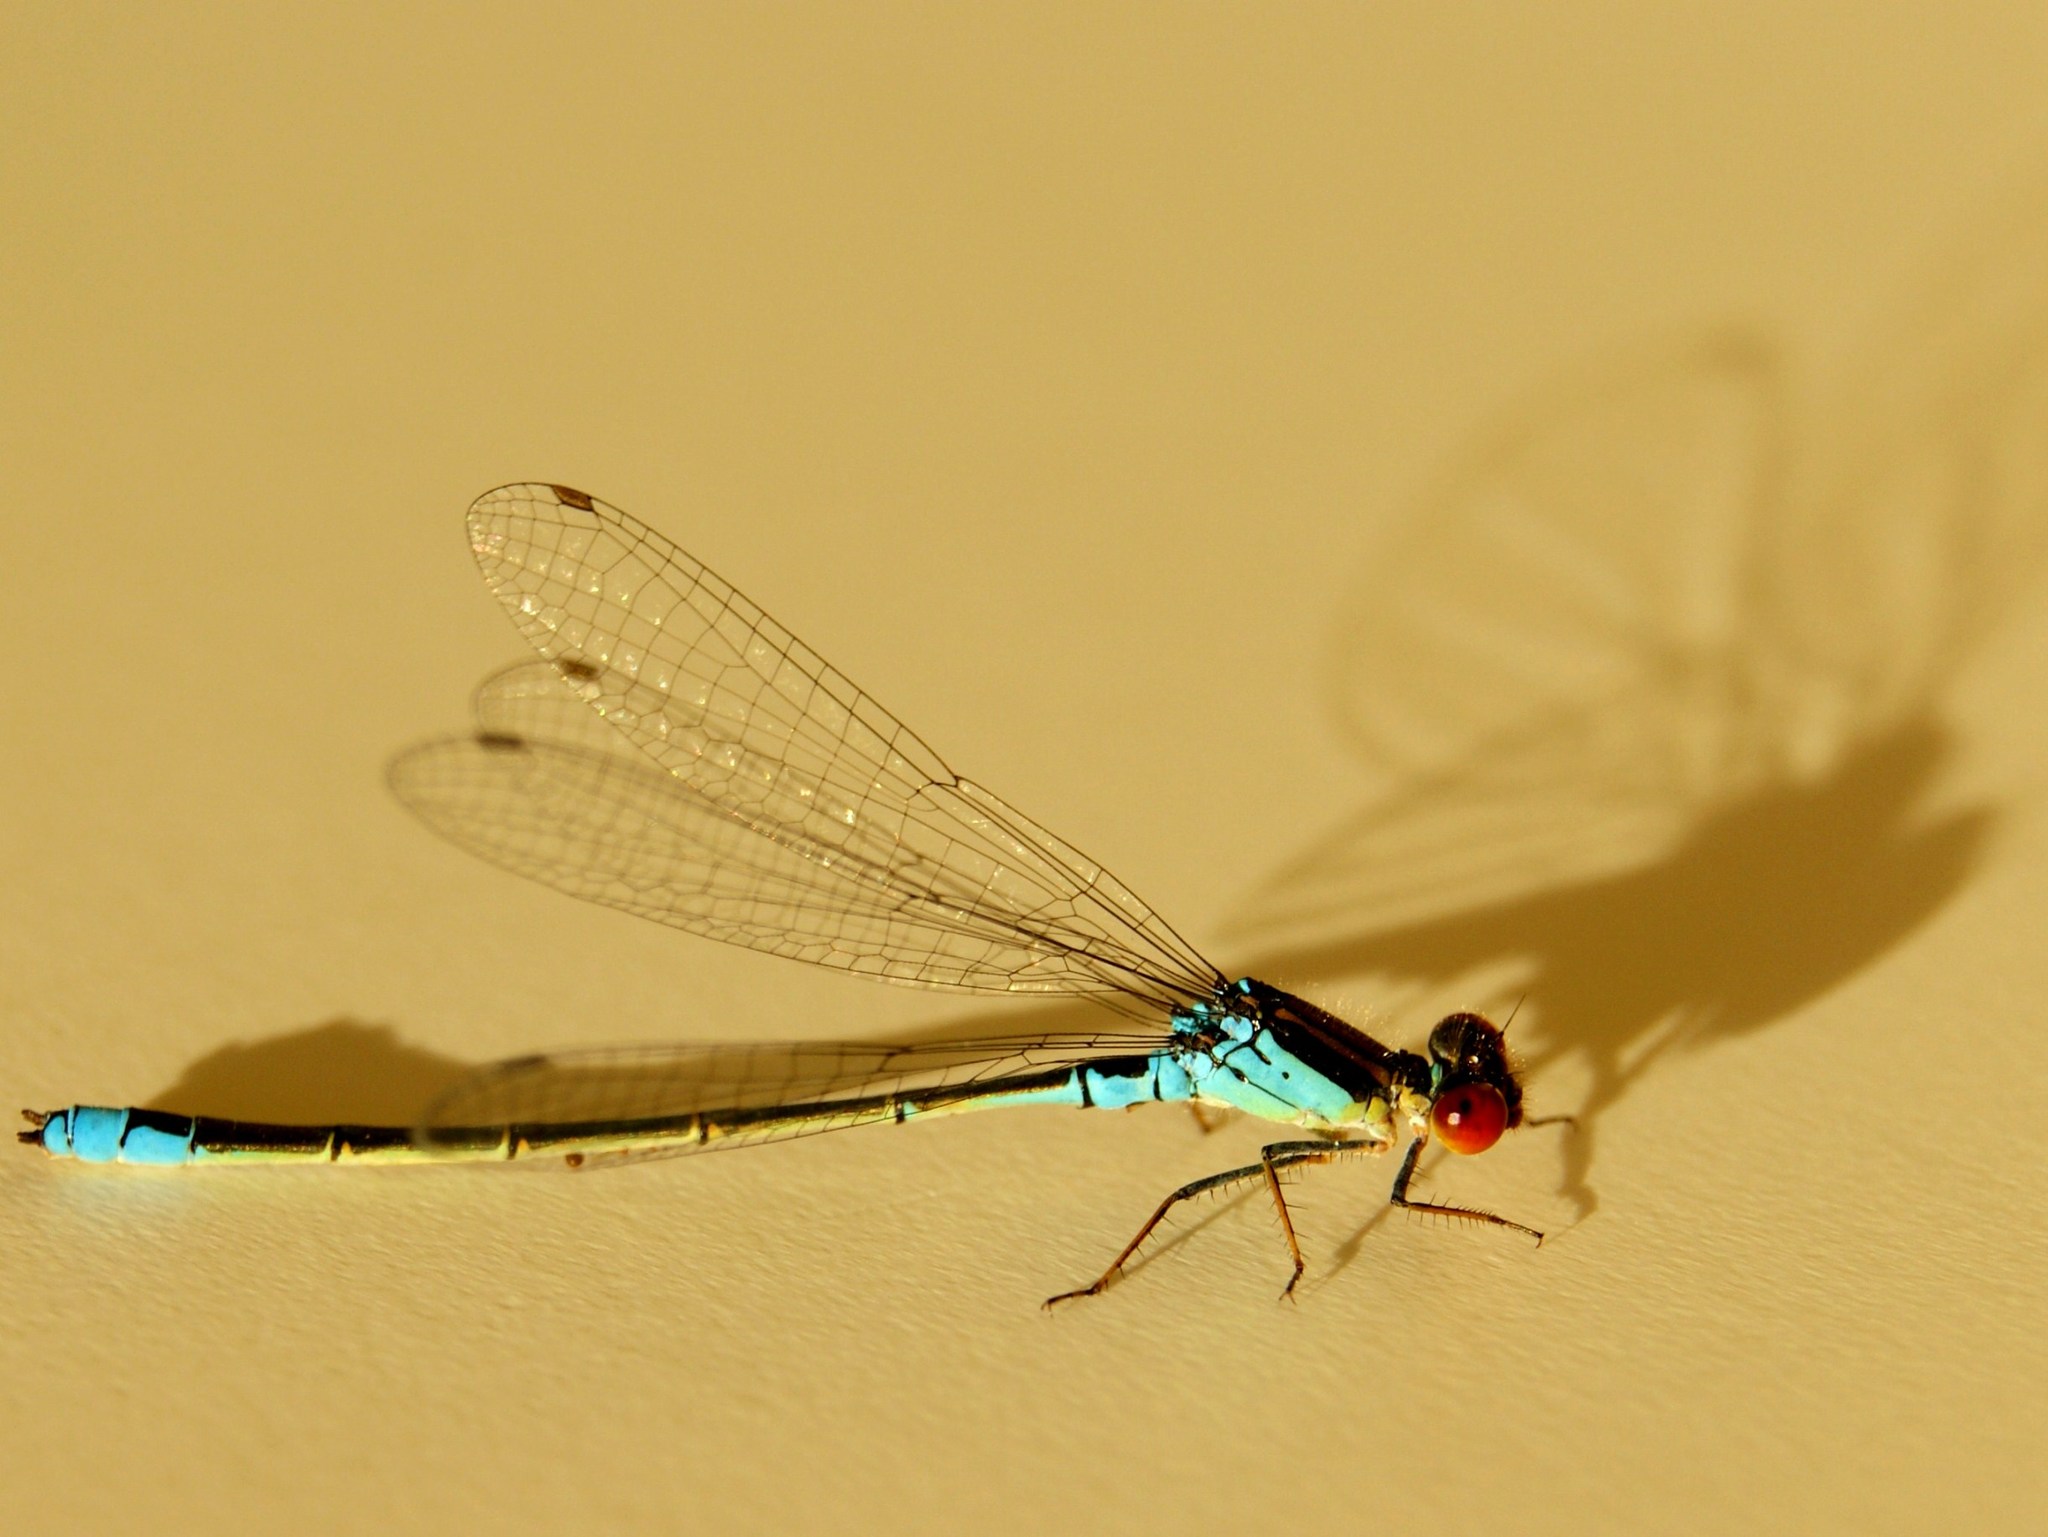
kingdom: Animalia
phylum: Arthropoda
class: Insecta
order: Odonata
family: Coenagrionidae
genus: Erythromma
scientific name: Erythromma viridulum
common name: Small red-eyed damselfly
